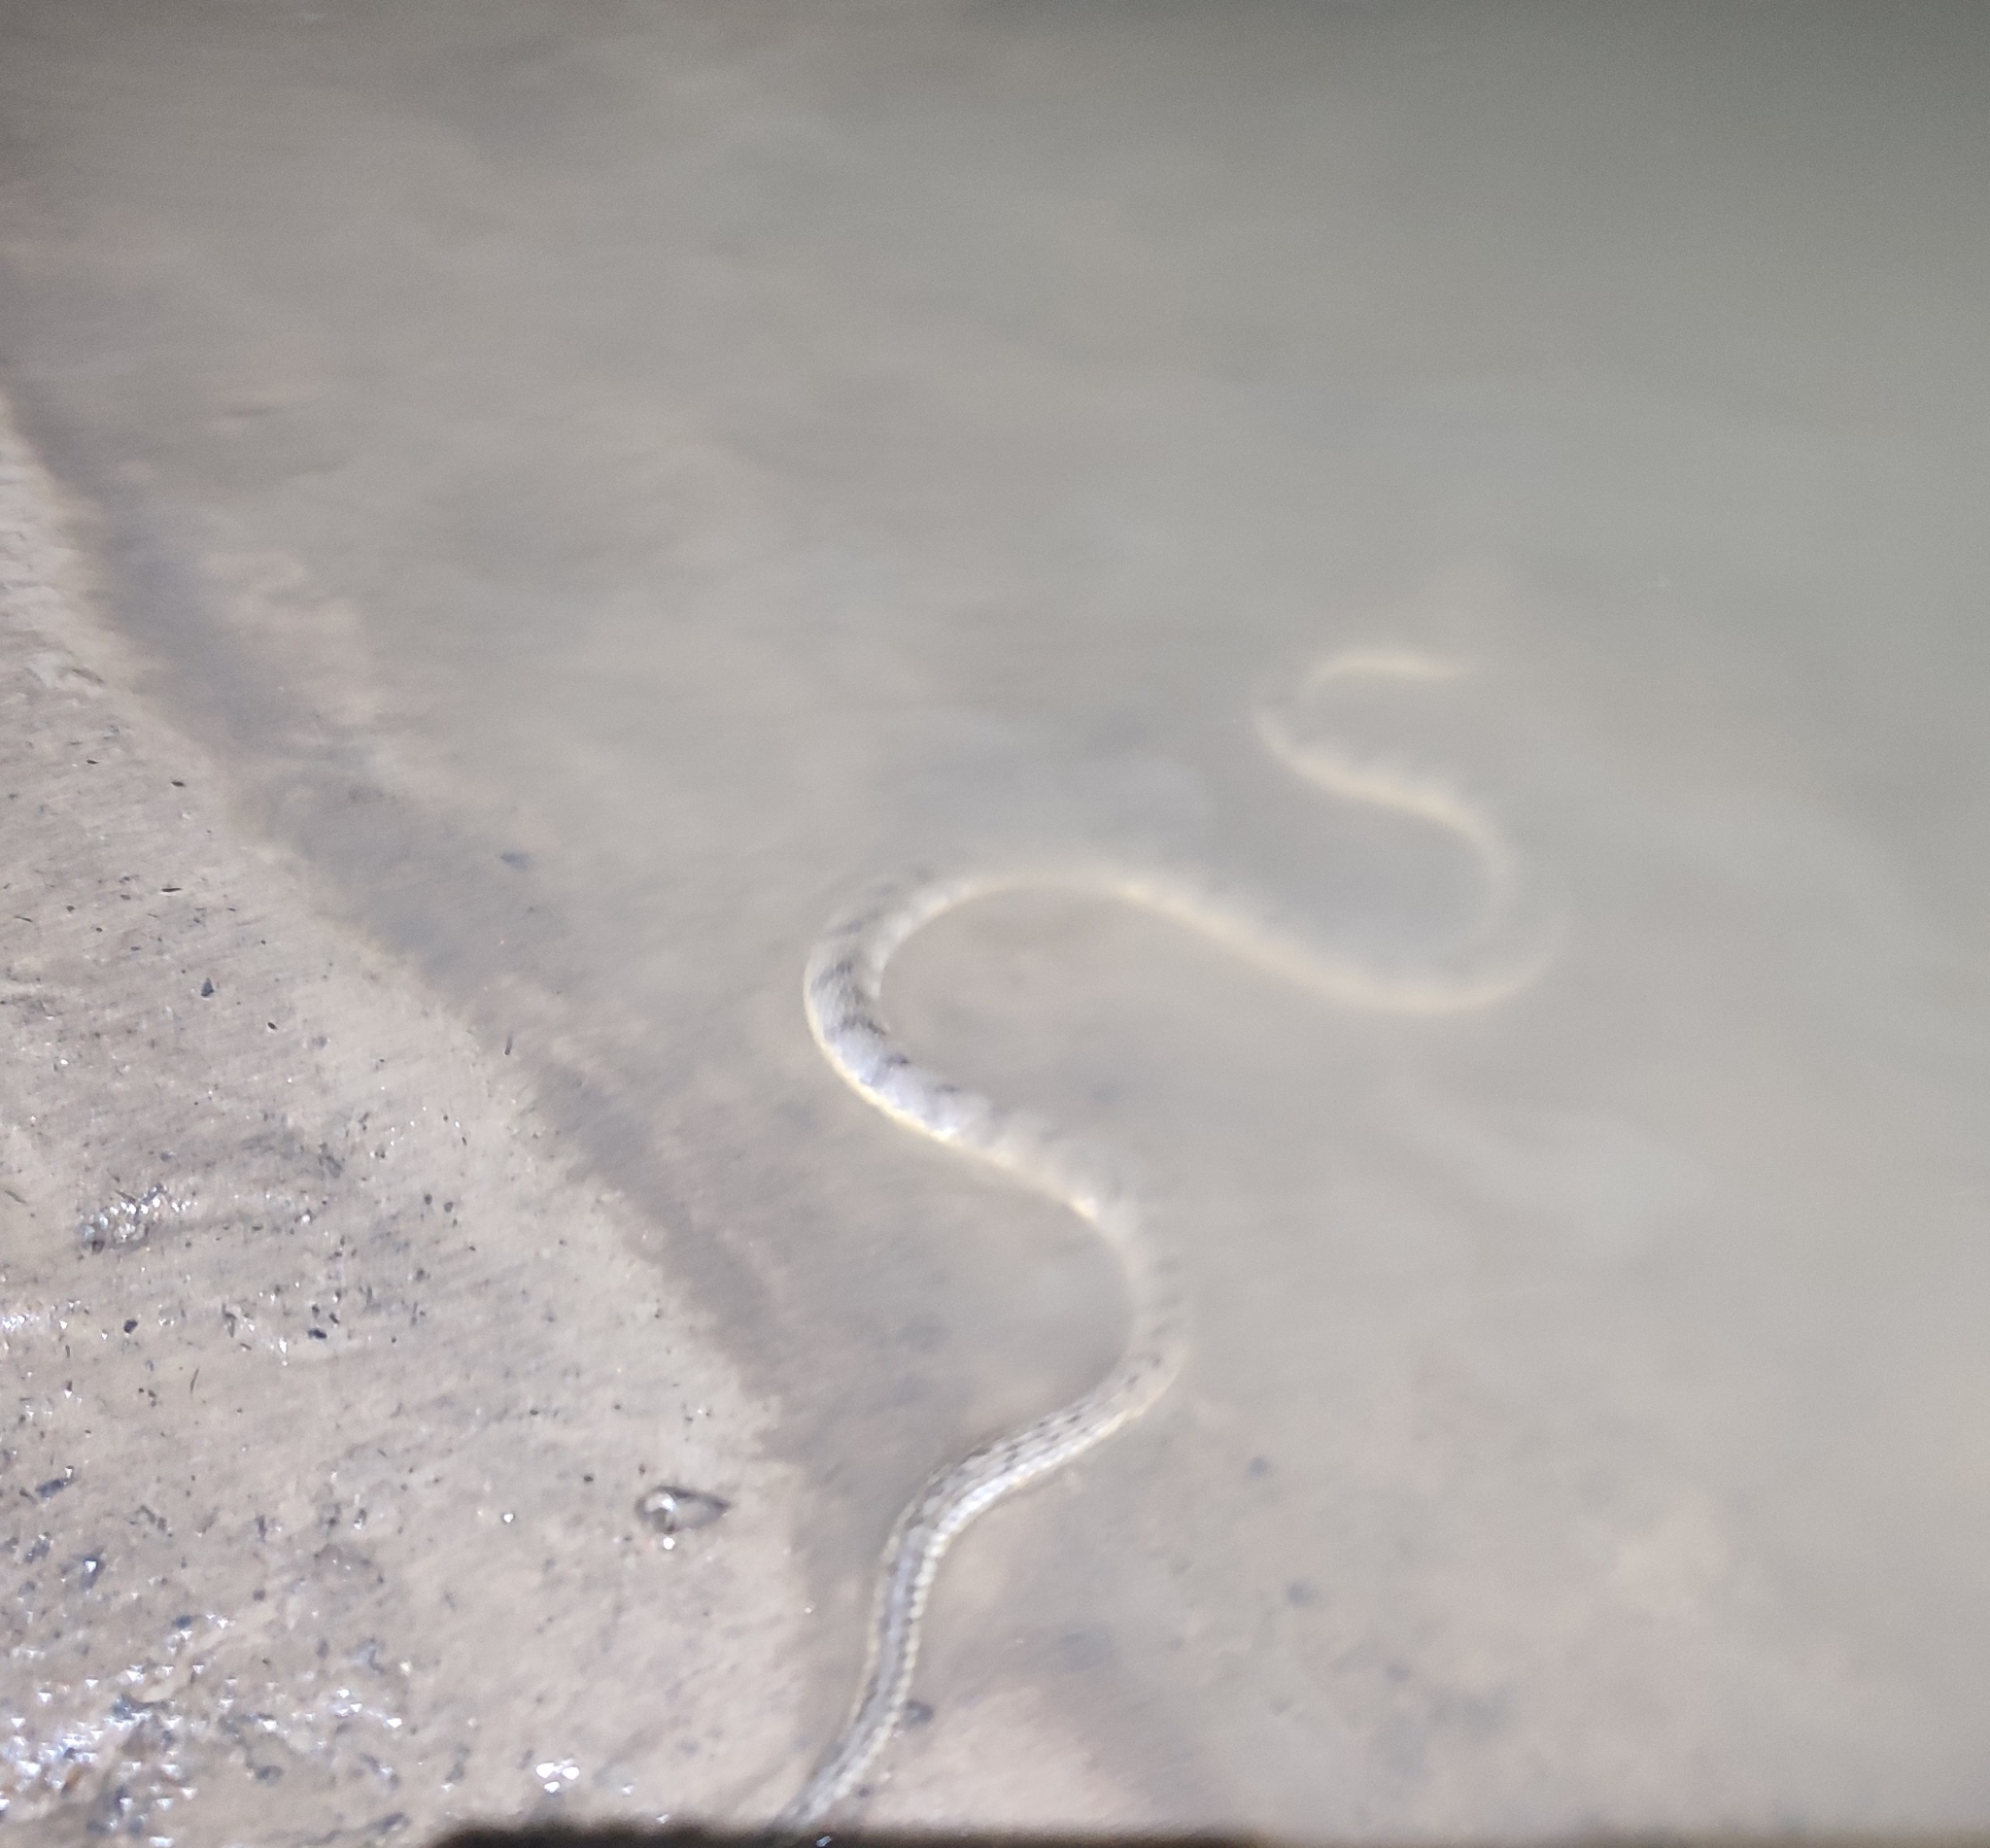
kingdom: Animalia
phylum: Chordata
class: Squamata
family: Homalopsidae
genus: Cerberus
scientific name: Cerberus schneiderii
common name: Southeast asian bockadam
